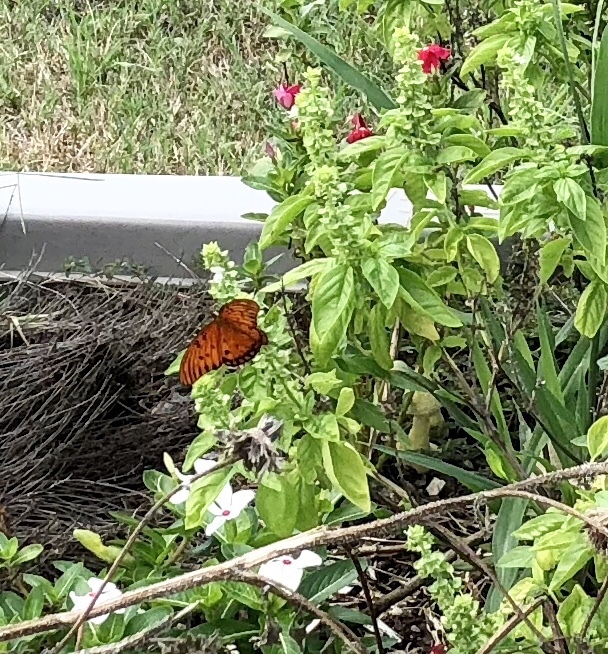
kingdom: Animalia
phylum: Arthropoda
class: Insecta
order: Lepidoptera
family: Nymphalidae
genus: Dione
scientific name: Dione vanillae
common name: Gulf fritillary
